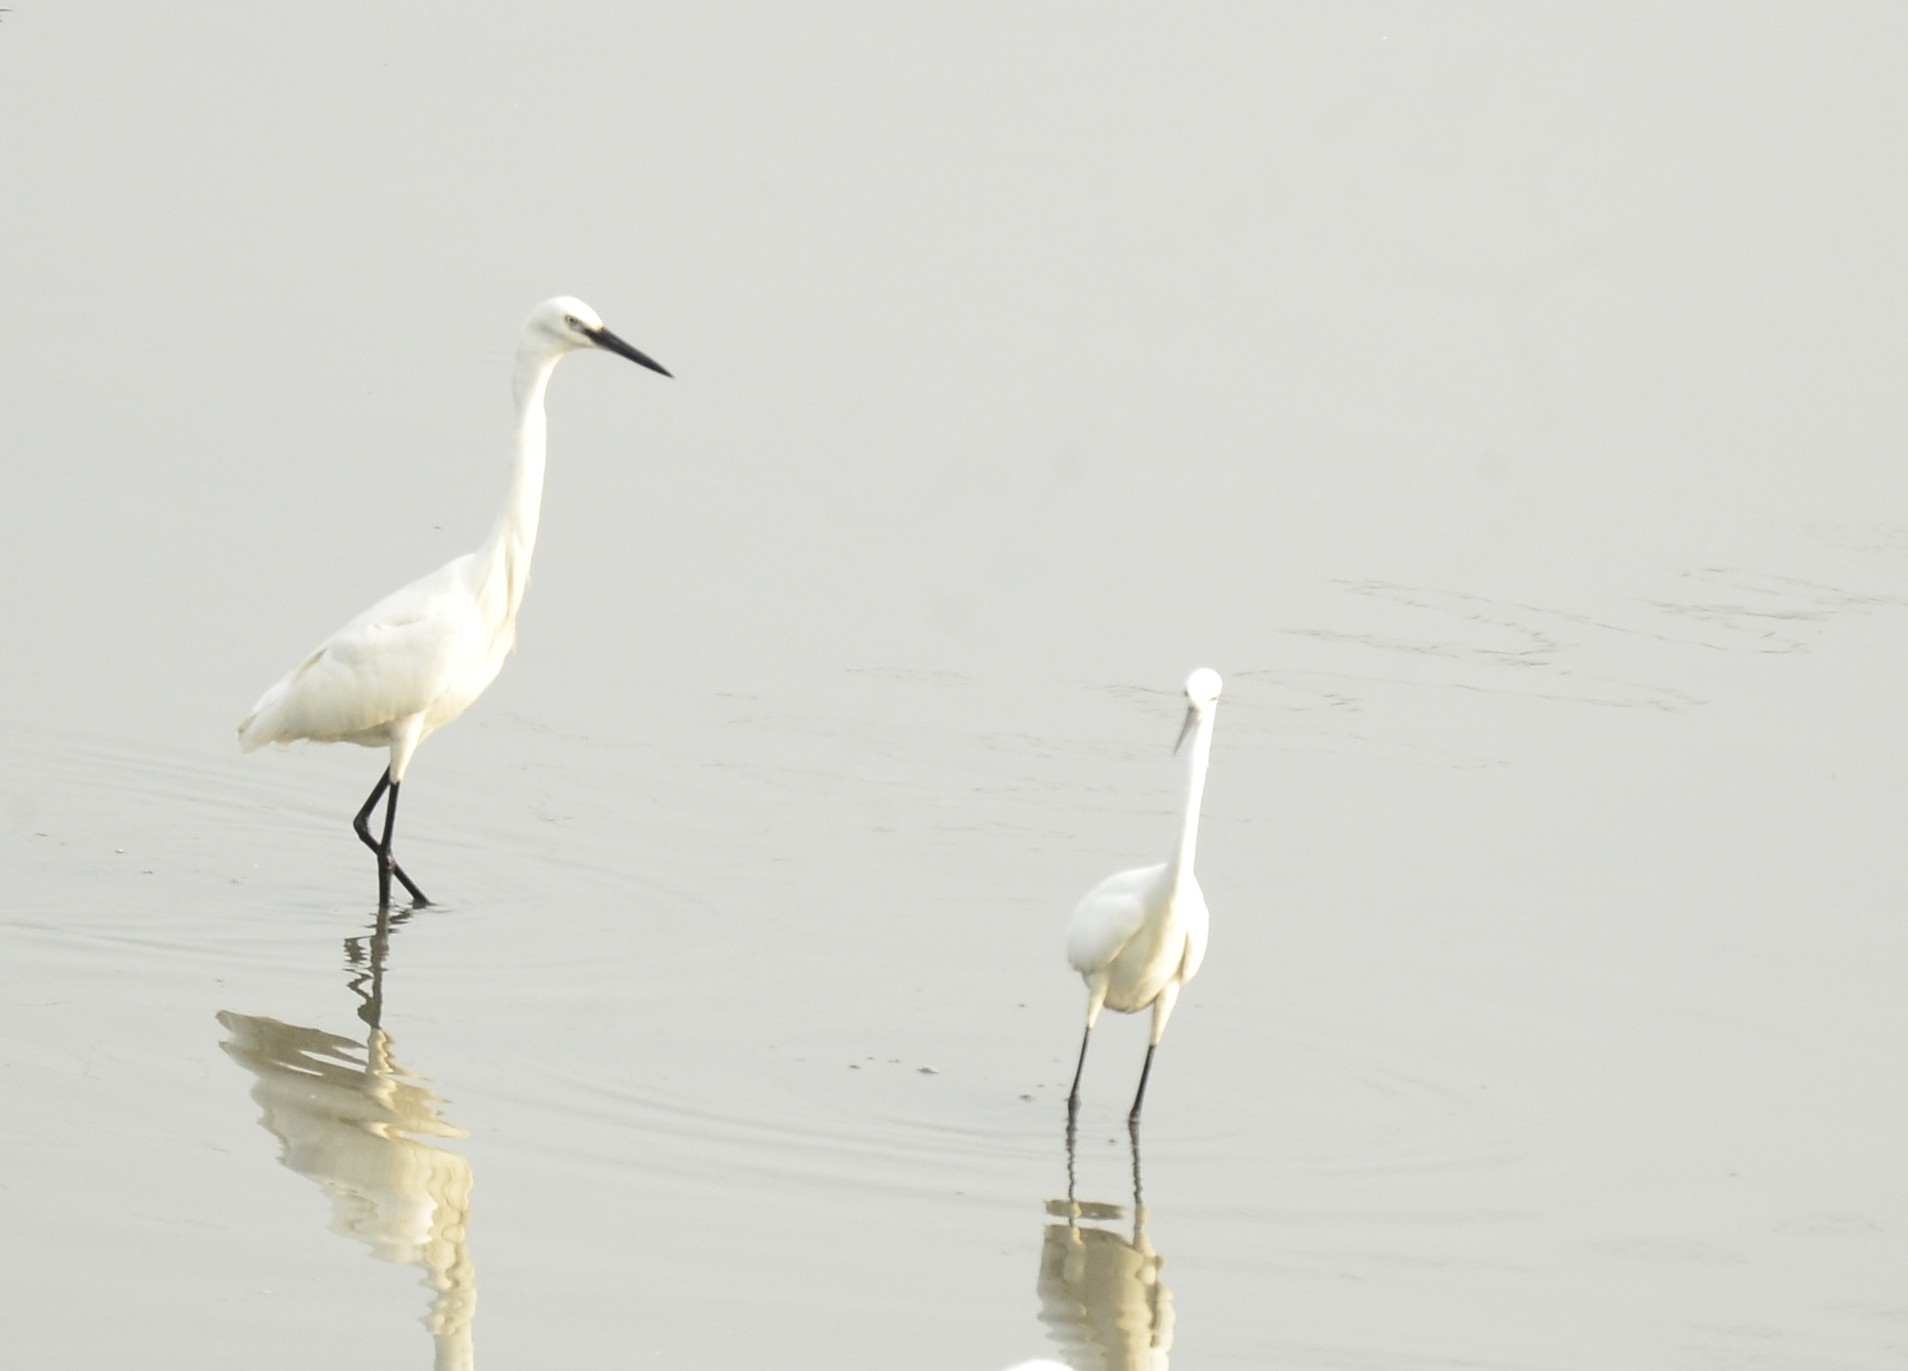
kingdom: Animalia
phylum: Chordata
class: Aves
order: Pelecaniformes
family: Ardeidae
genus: Egretta
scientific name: Egretta garzetta
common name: Little egret
